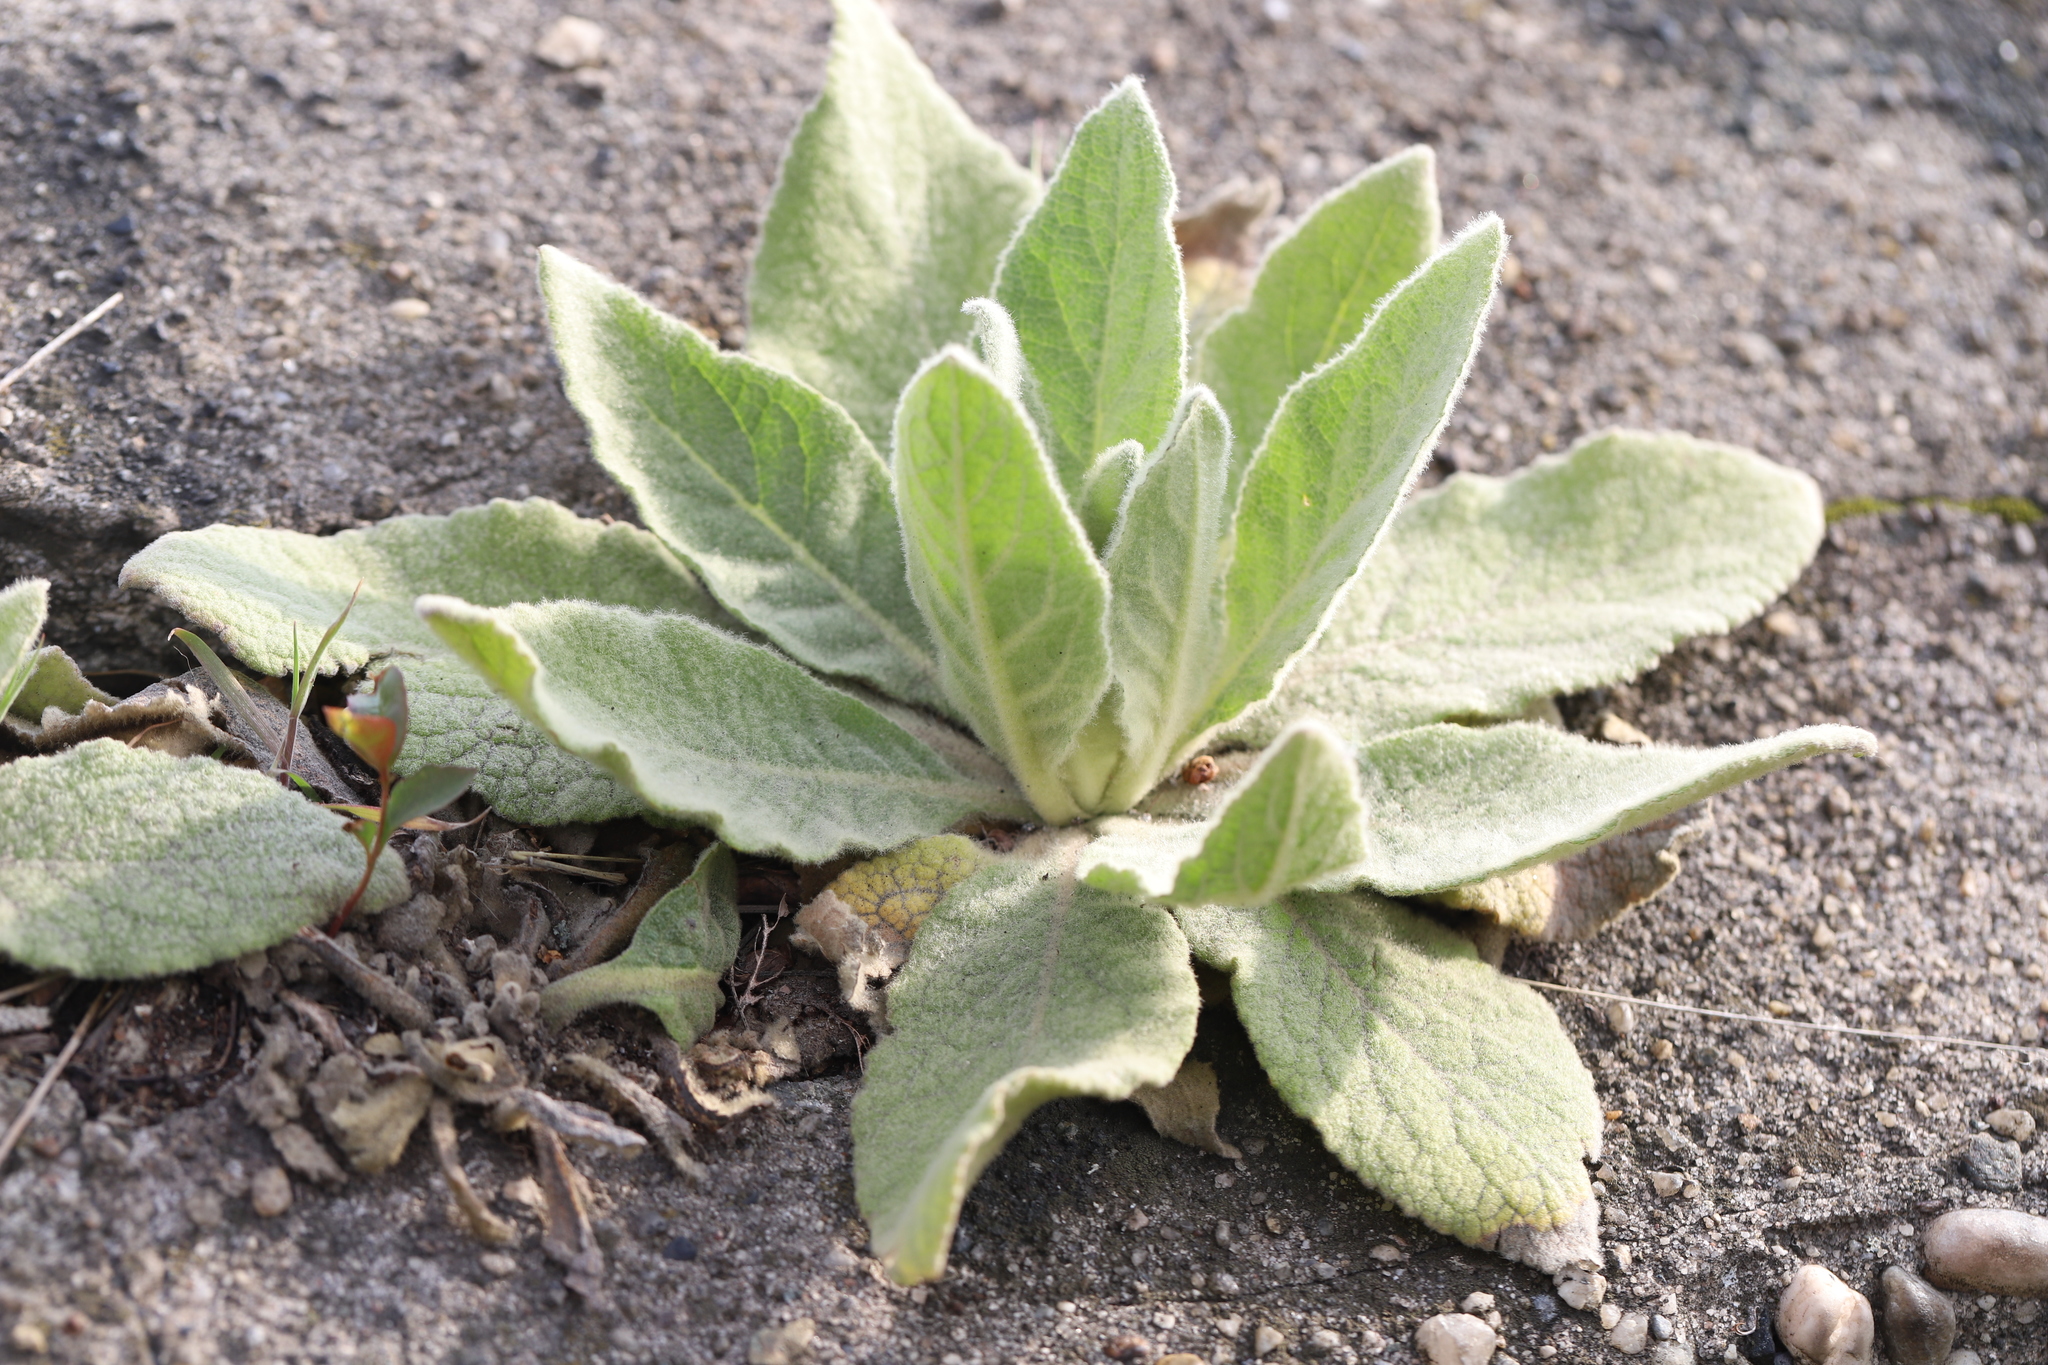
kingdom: Plantae
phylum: Tracheophyta
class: Magnoliopsida
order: Lamiales
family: Scrophulariaceae
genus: Verbascum
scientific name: Verbascum thapsus
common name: Common mullein
